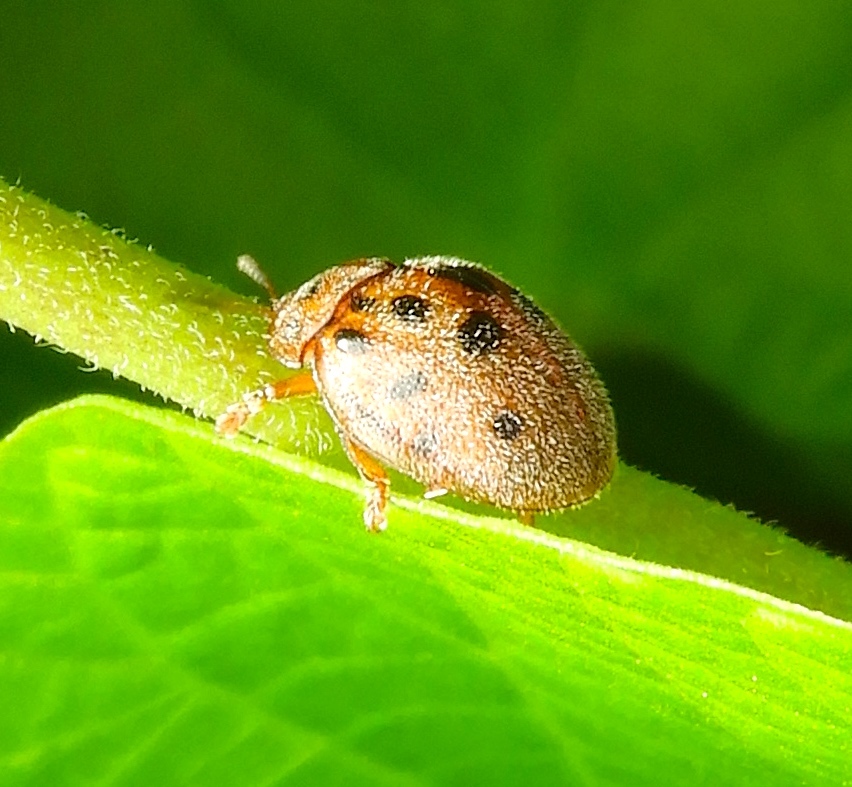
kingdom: Animalia
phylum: Arthropoda
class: Insecta
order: Coleoptera
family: Chrysomelidae
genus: Chelymorpha
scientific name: Chelymorpha
